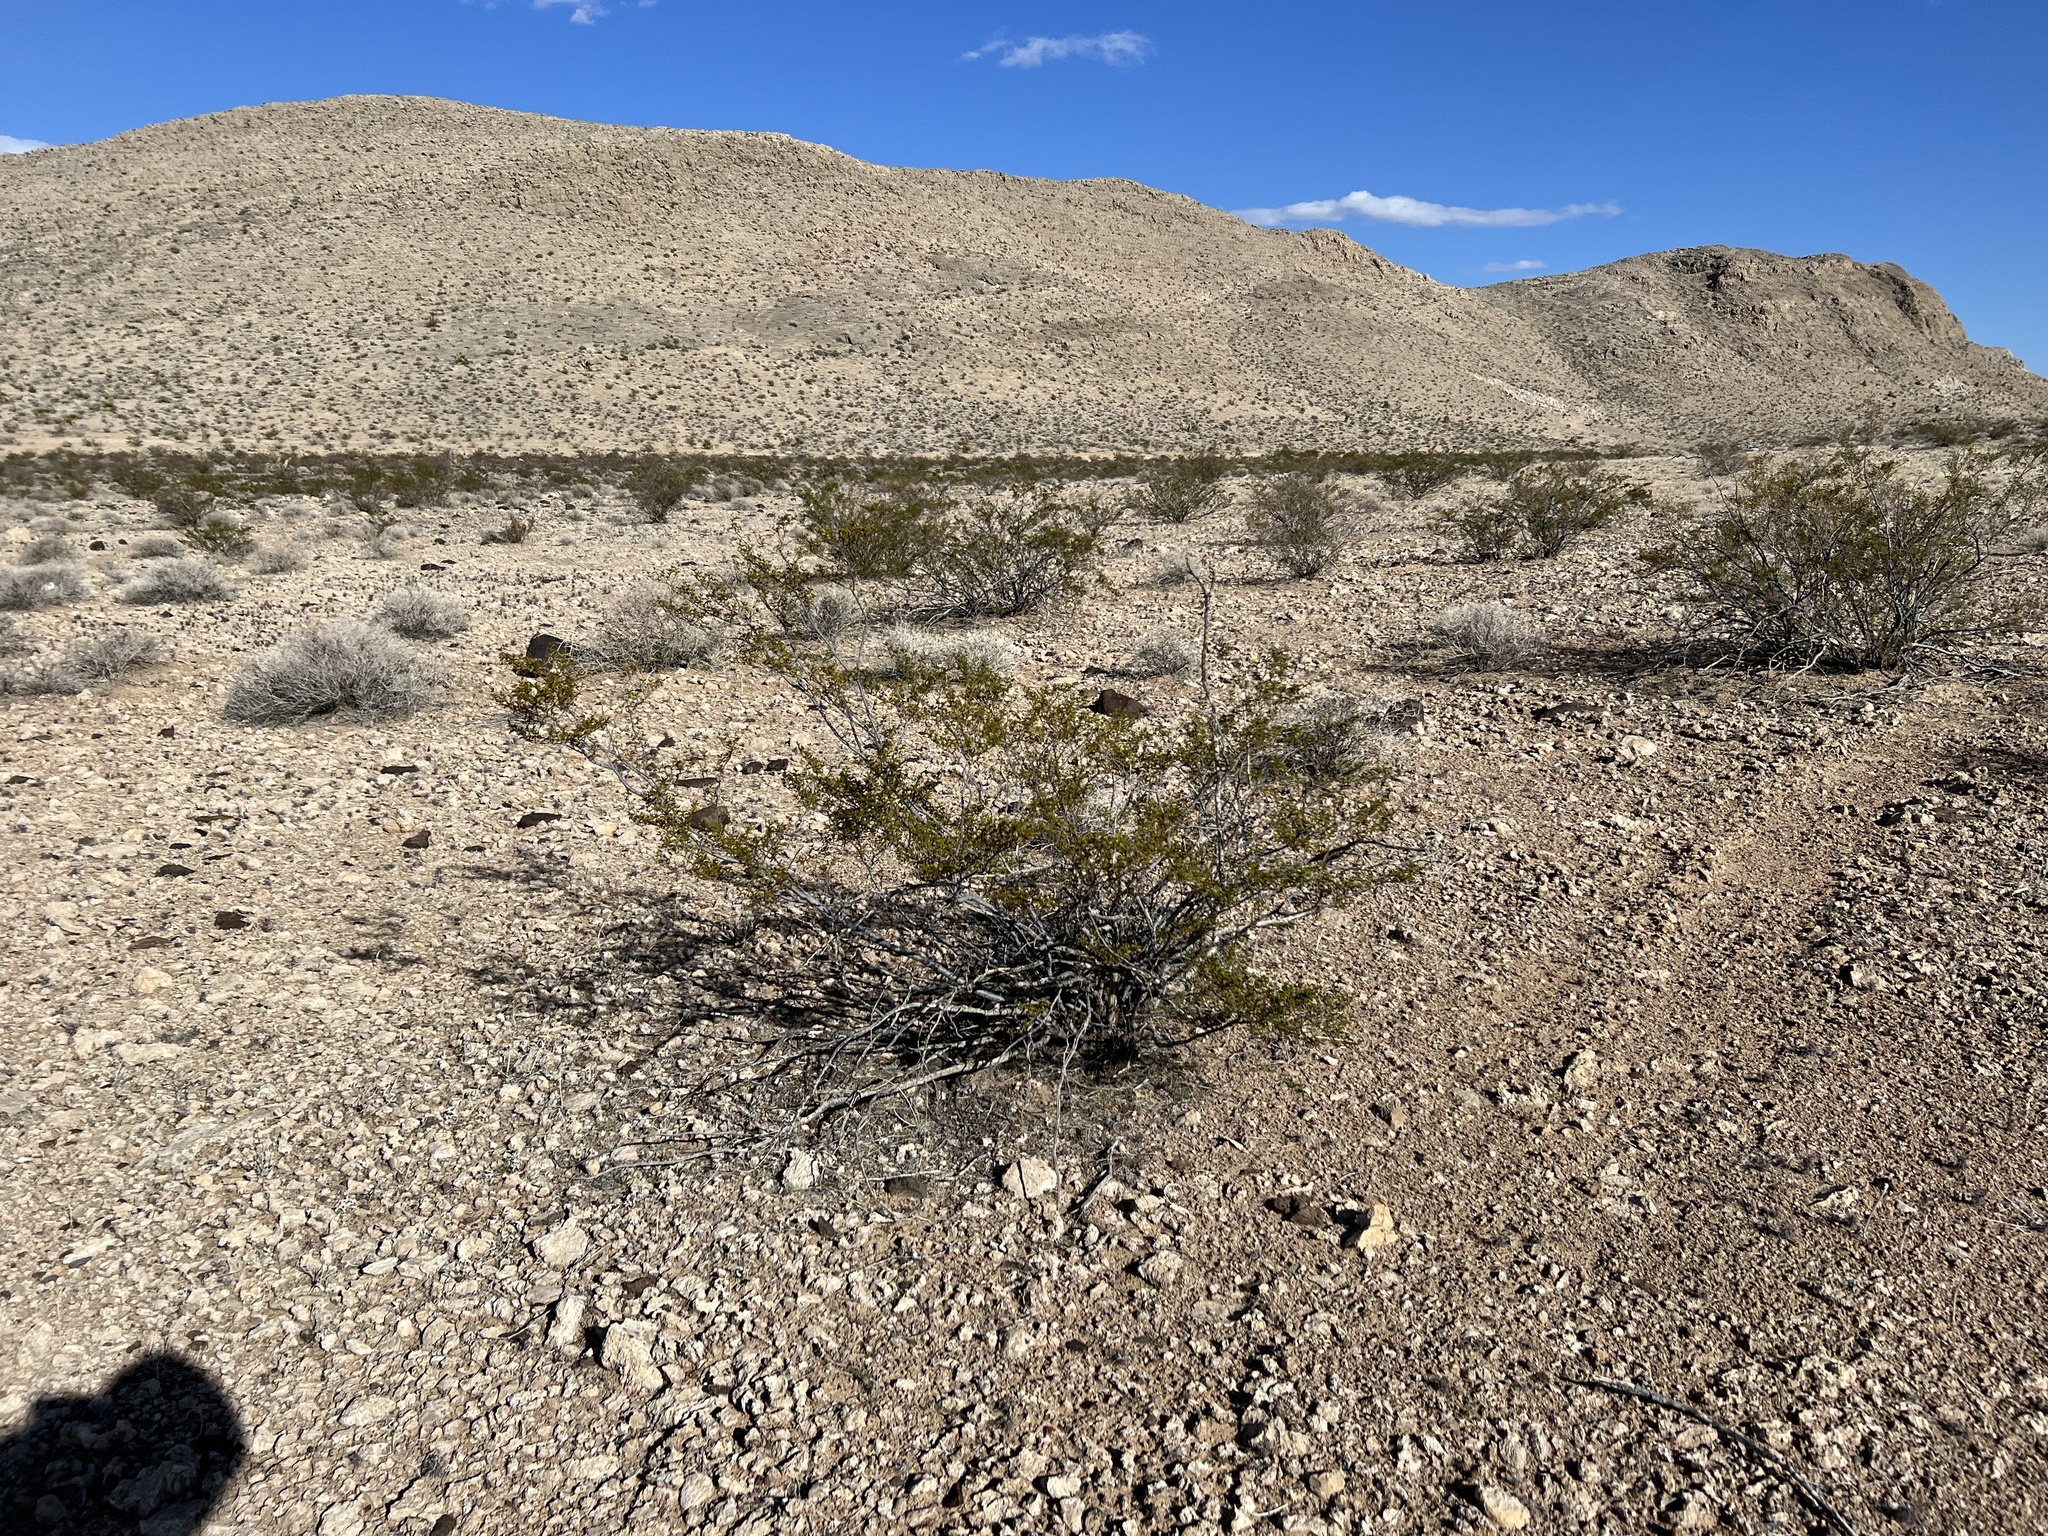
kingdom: Plantae
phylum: Tracheophyta
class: Magnoliopsida
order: Zygophyllales
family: Zygophyllaceae
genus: Larrea
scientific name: Larrea tridentata
